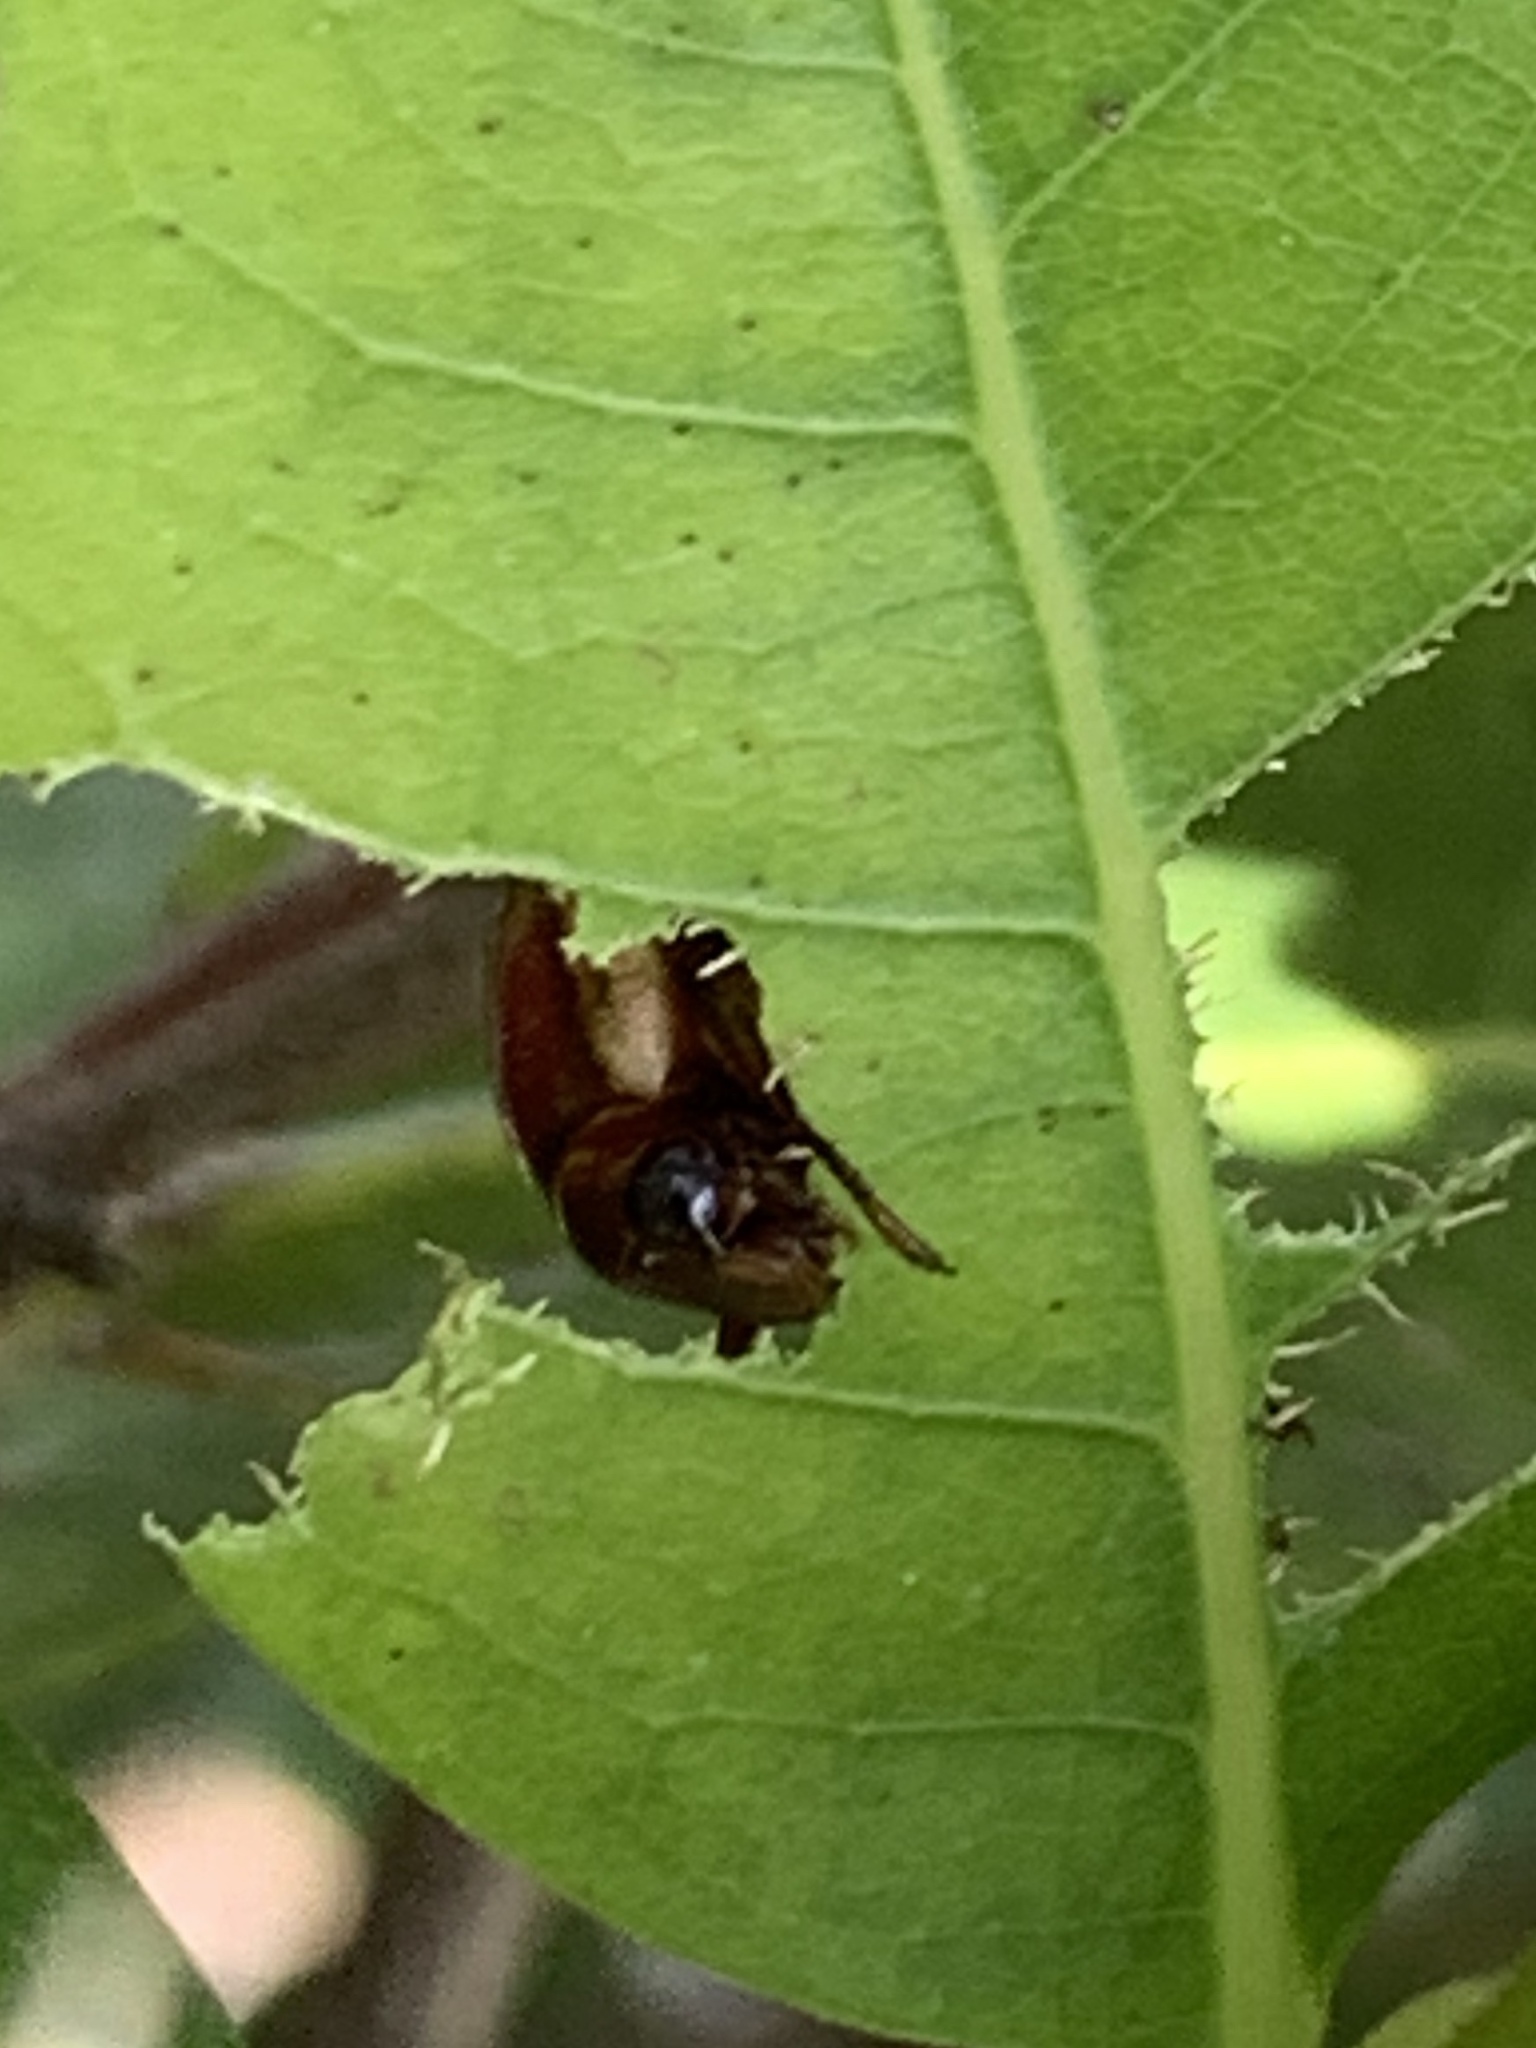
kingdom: Animalia
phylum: Arthropoda
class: Insecta
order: Coleoptera
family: Scarabaeidae
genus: Callistethus
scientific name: Callistethus marginatus
